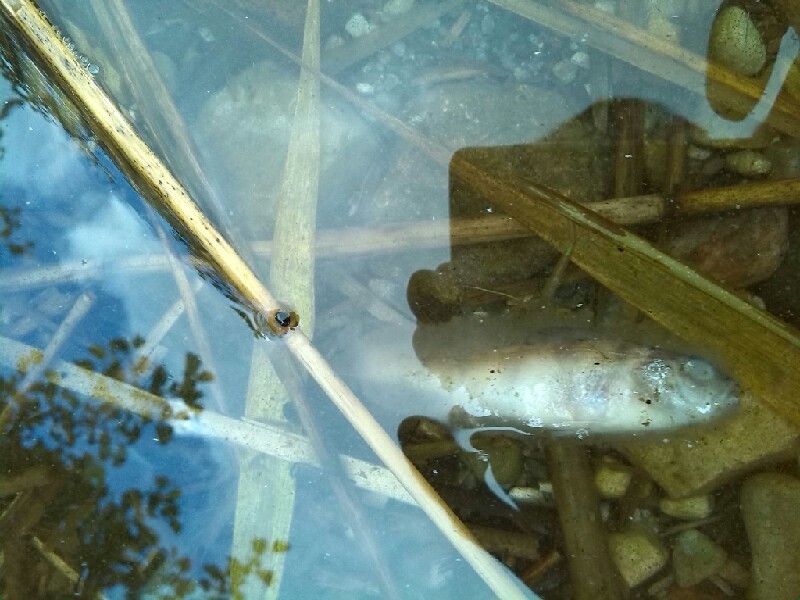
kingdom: Animalia
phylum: Chordata
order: Perciformes
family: Percidae
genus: Perca
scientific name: Perca fluviatilis
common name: Perch
